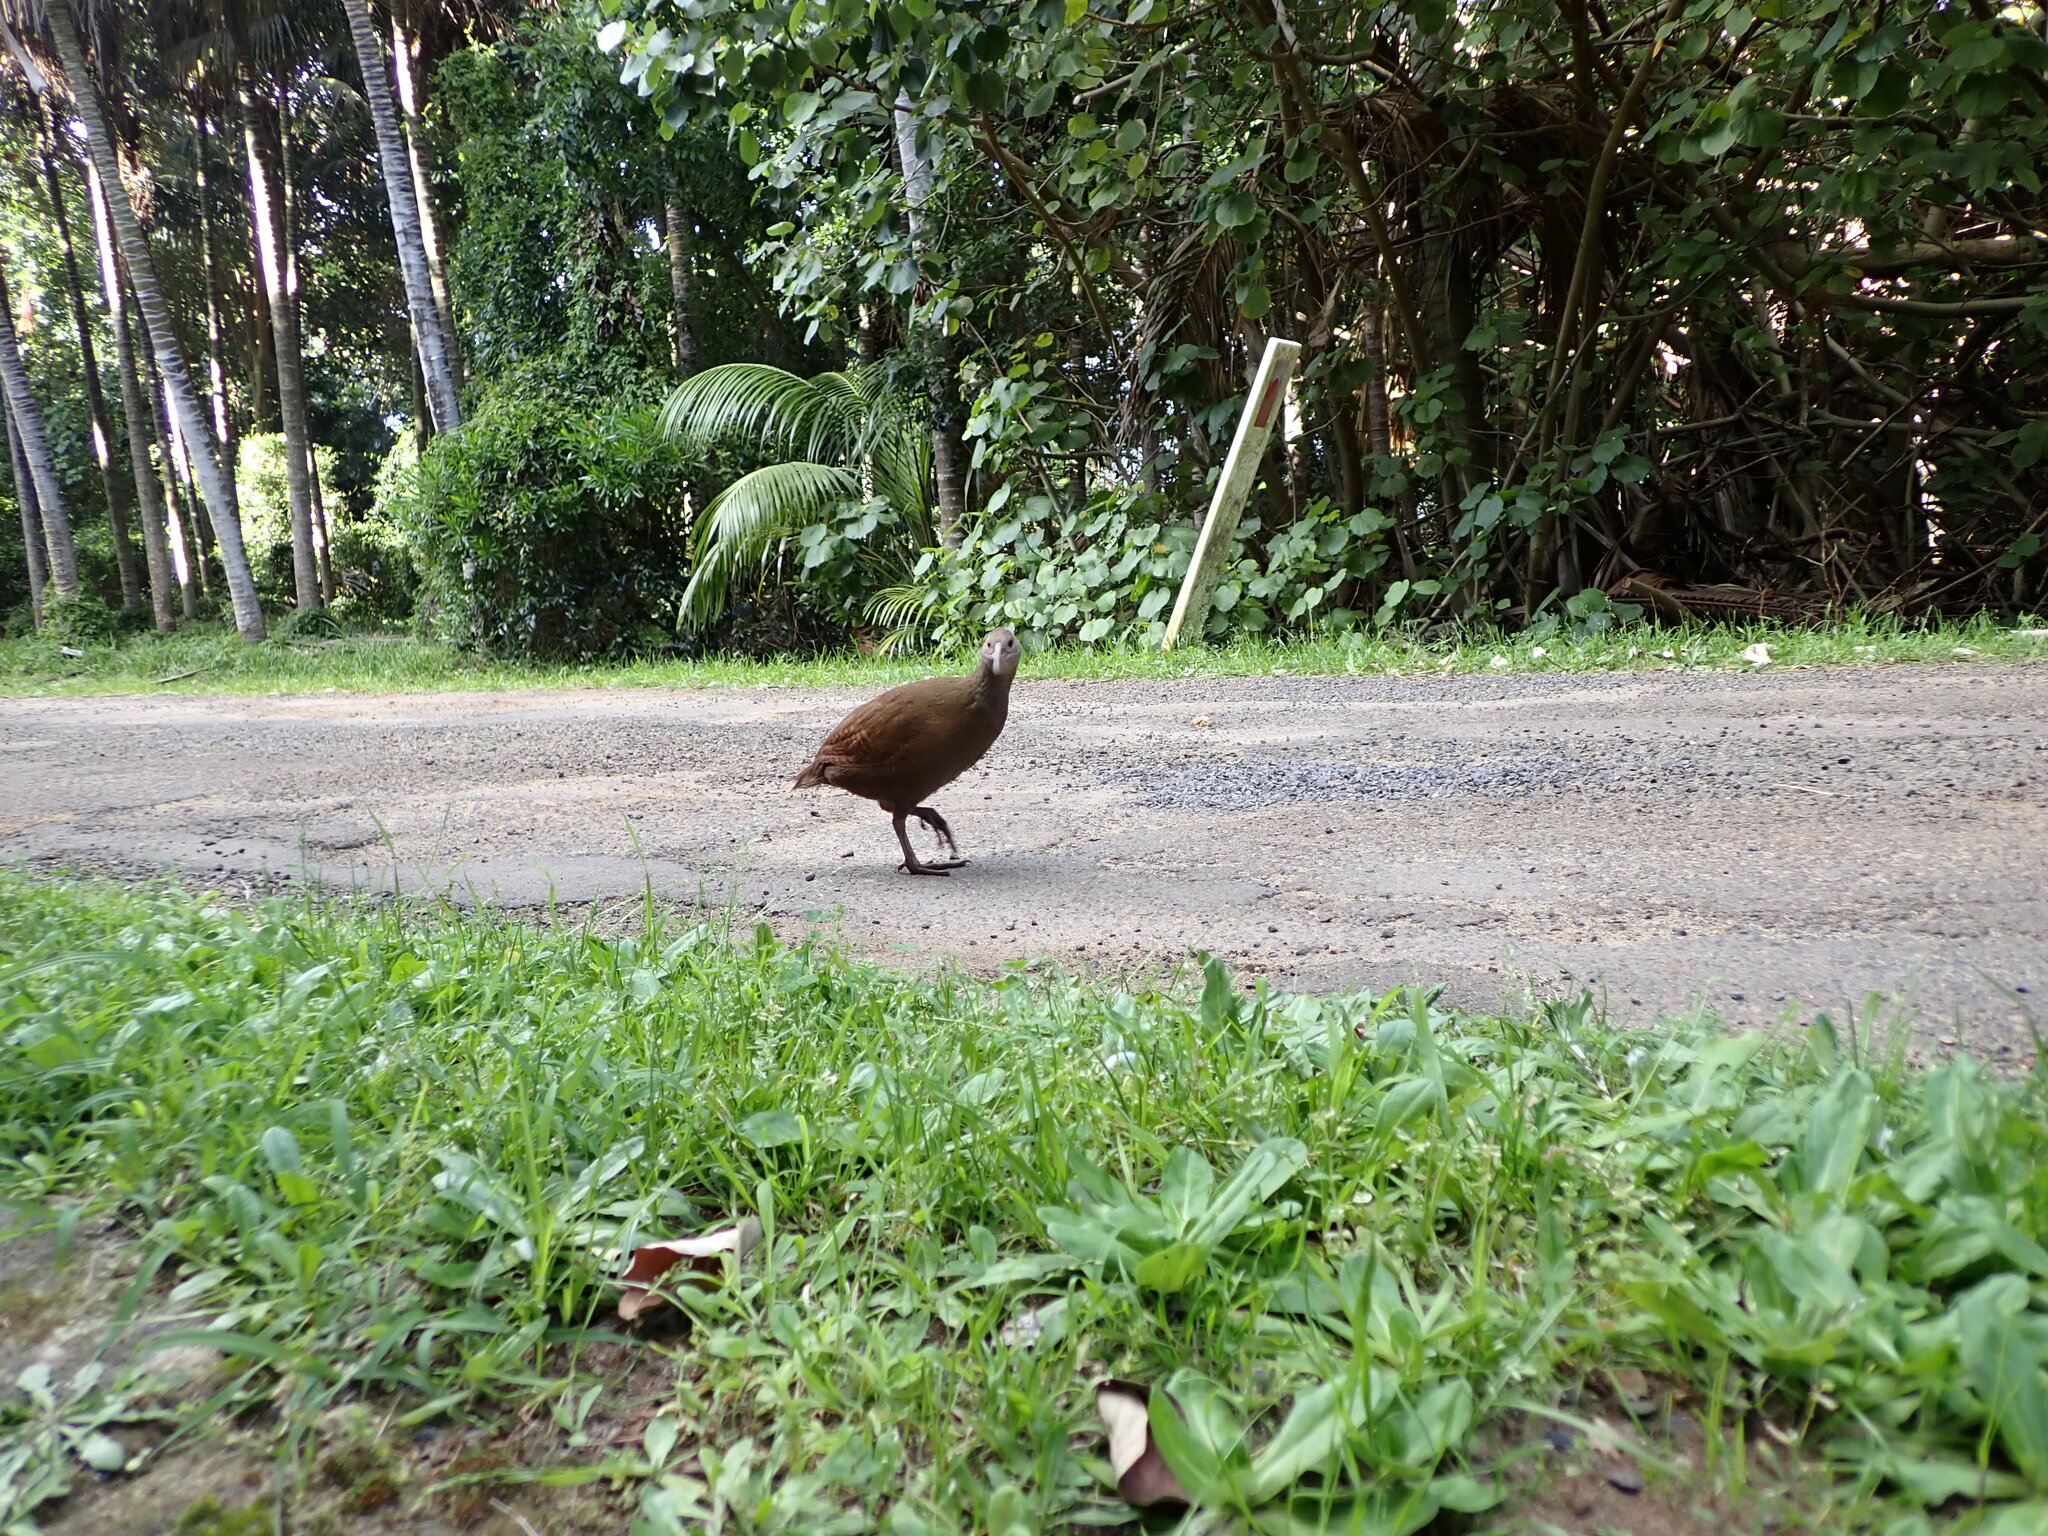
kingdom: Animalia
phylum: Chordata
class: Aves
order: Gruiformes
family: Rallidae
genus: Gallirallus
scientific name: Gallirallus sylvestris
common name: Lord howe woodhen
